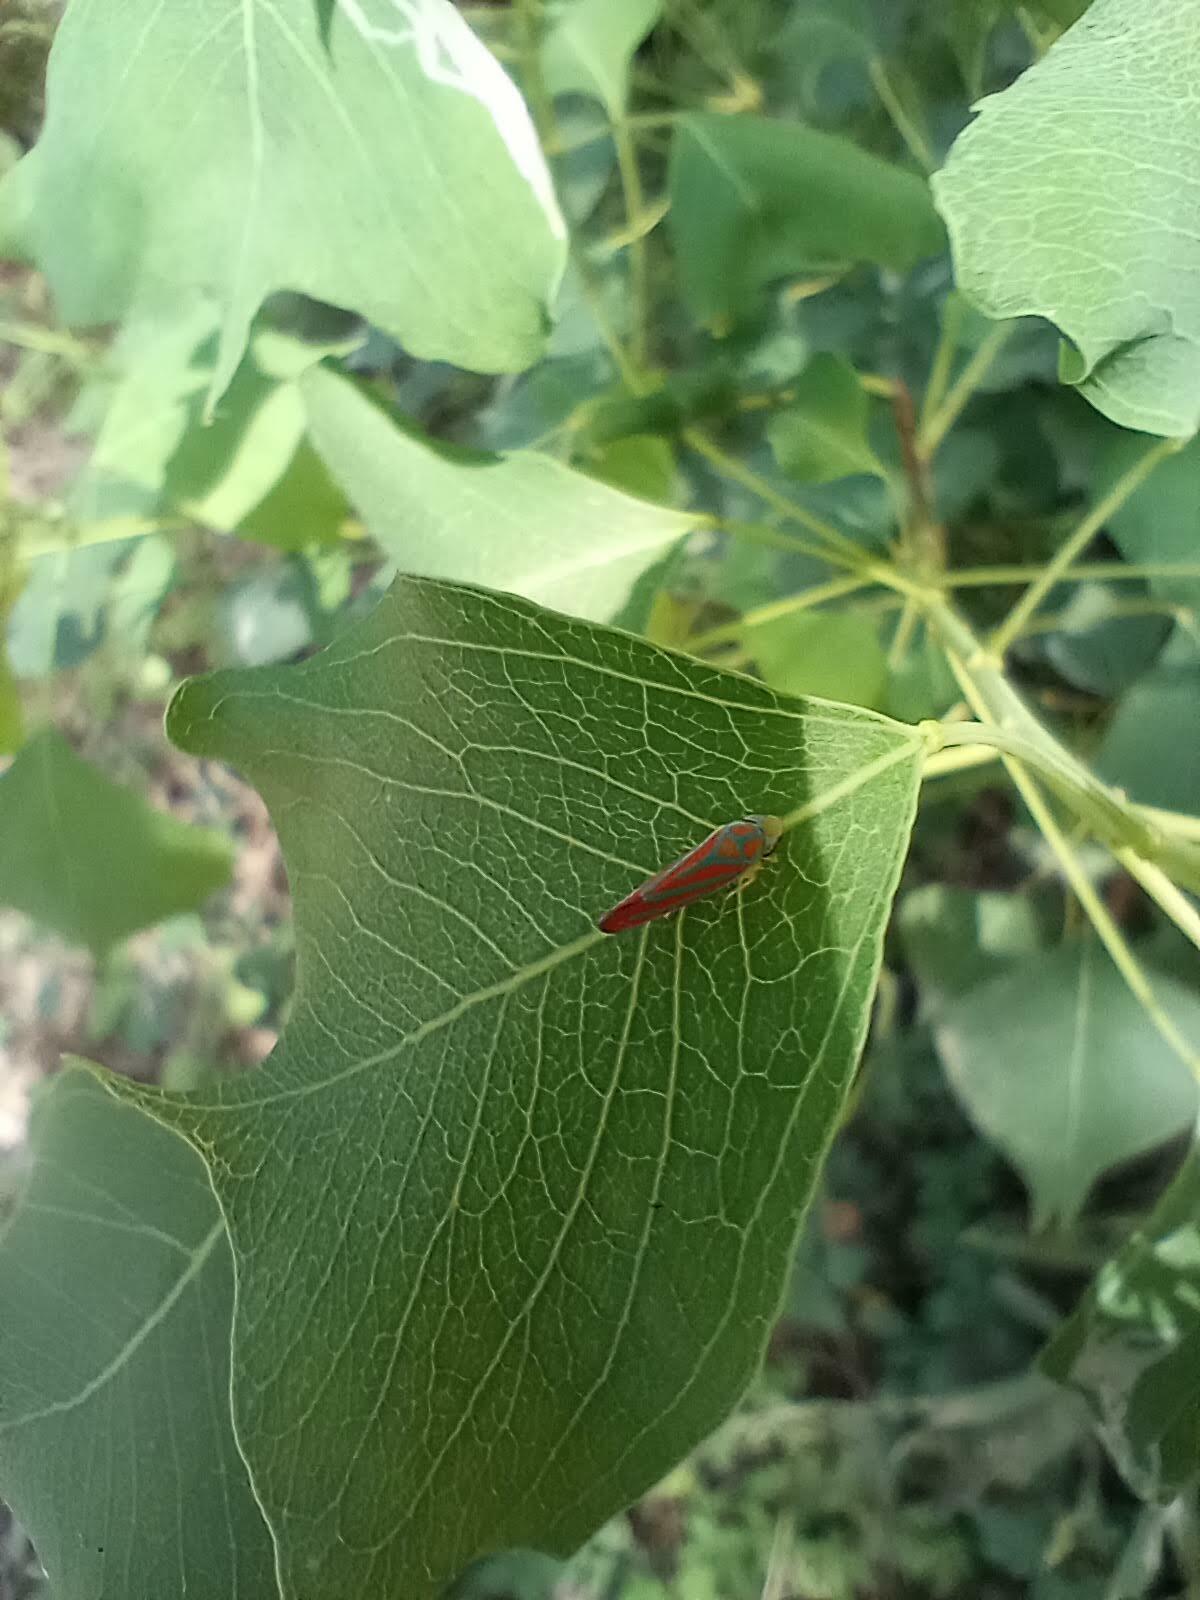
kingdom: Animalia
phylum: Arthropoda
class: Insecta
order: Hemiptera
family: Cicadellidae
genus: Graphocephala
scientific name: Graphocephala coccinea
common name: Candy-striped leafhopper
